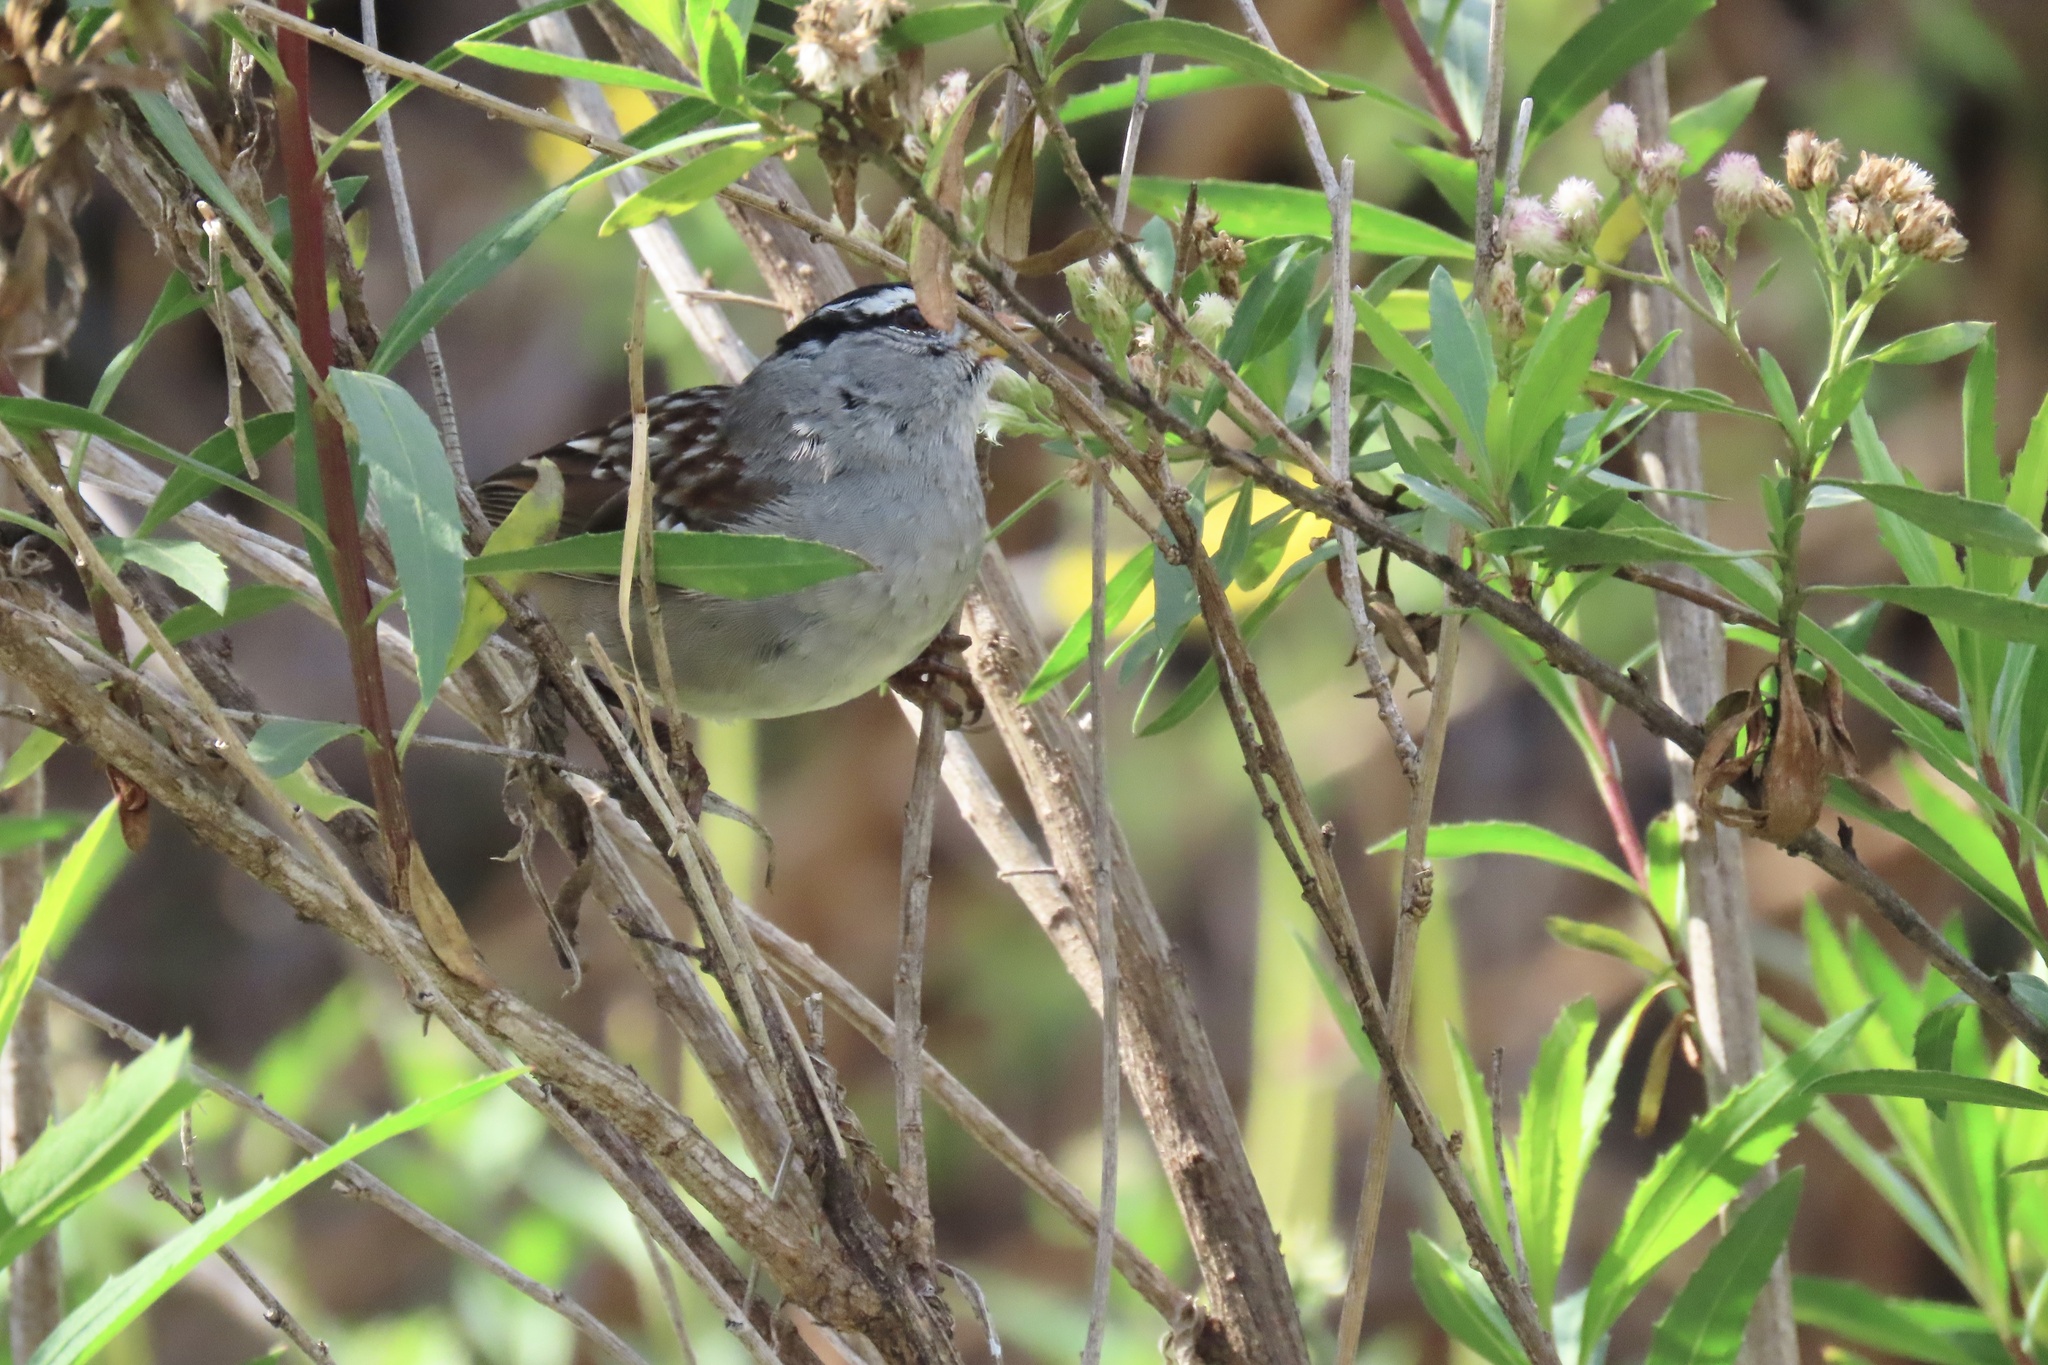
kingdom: Animalia
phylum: Chordata
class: Aves
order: Passeriformes
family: Passerellidae
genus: Zonotrichia
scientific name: Zonotrichia leucophrys
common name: White-crowned sparrow
